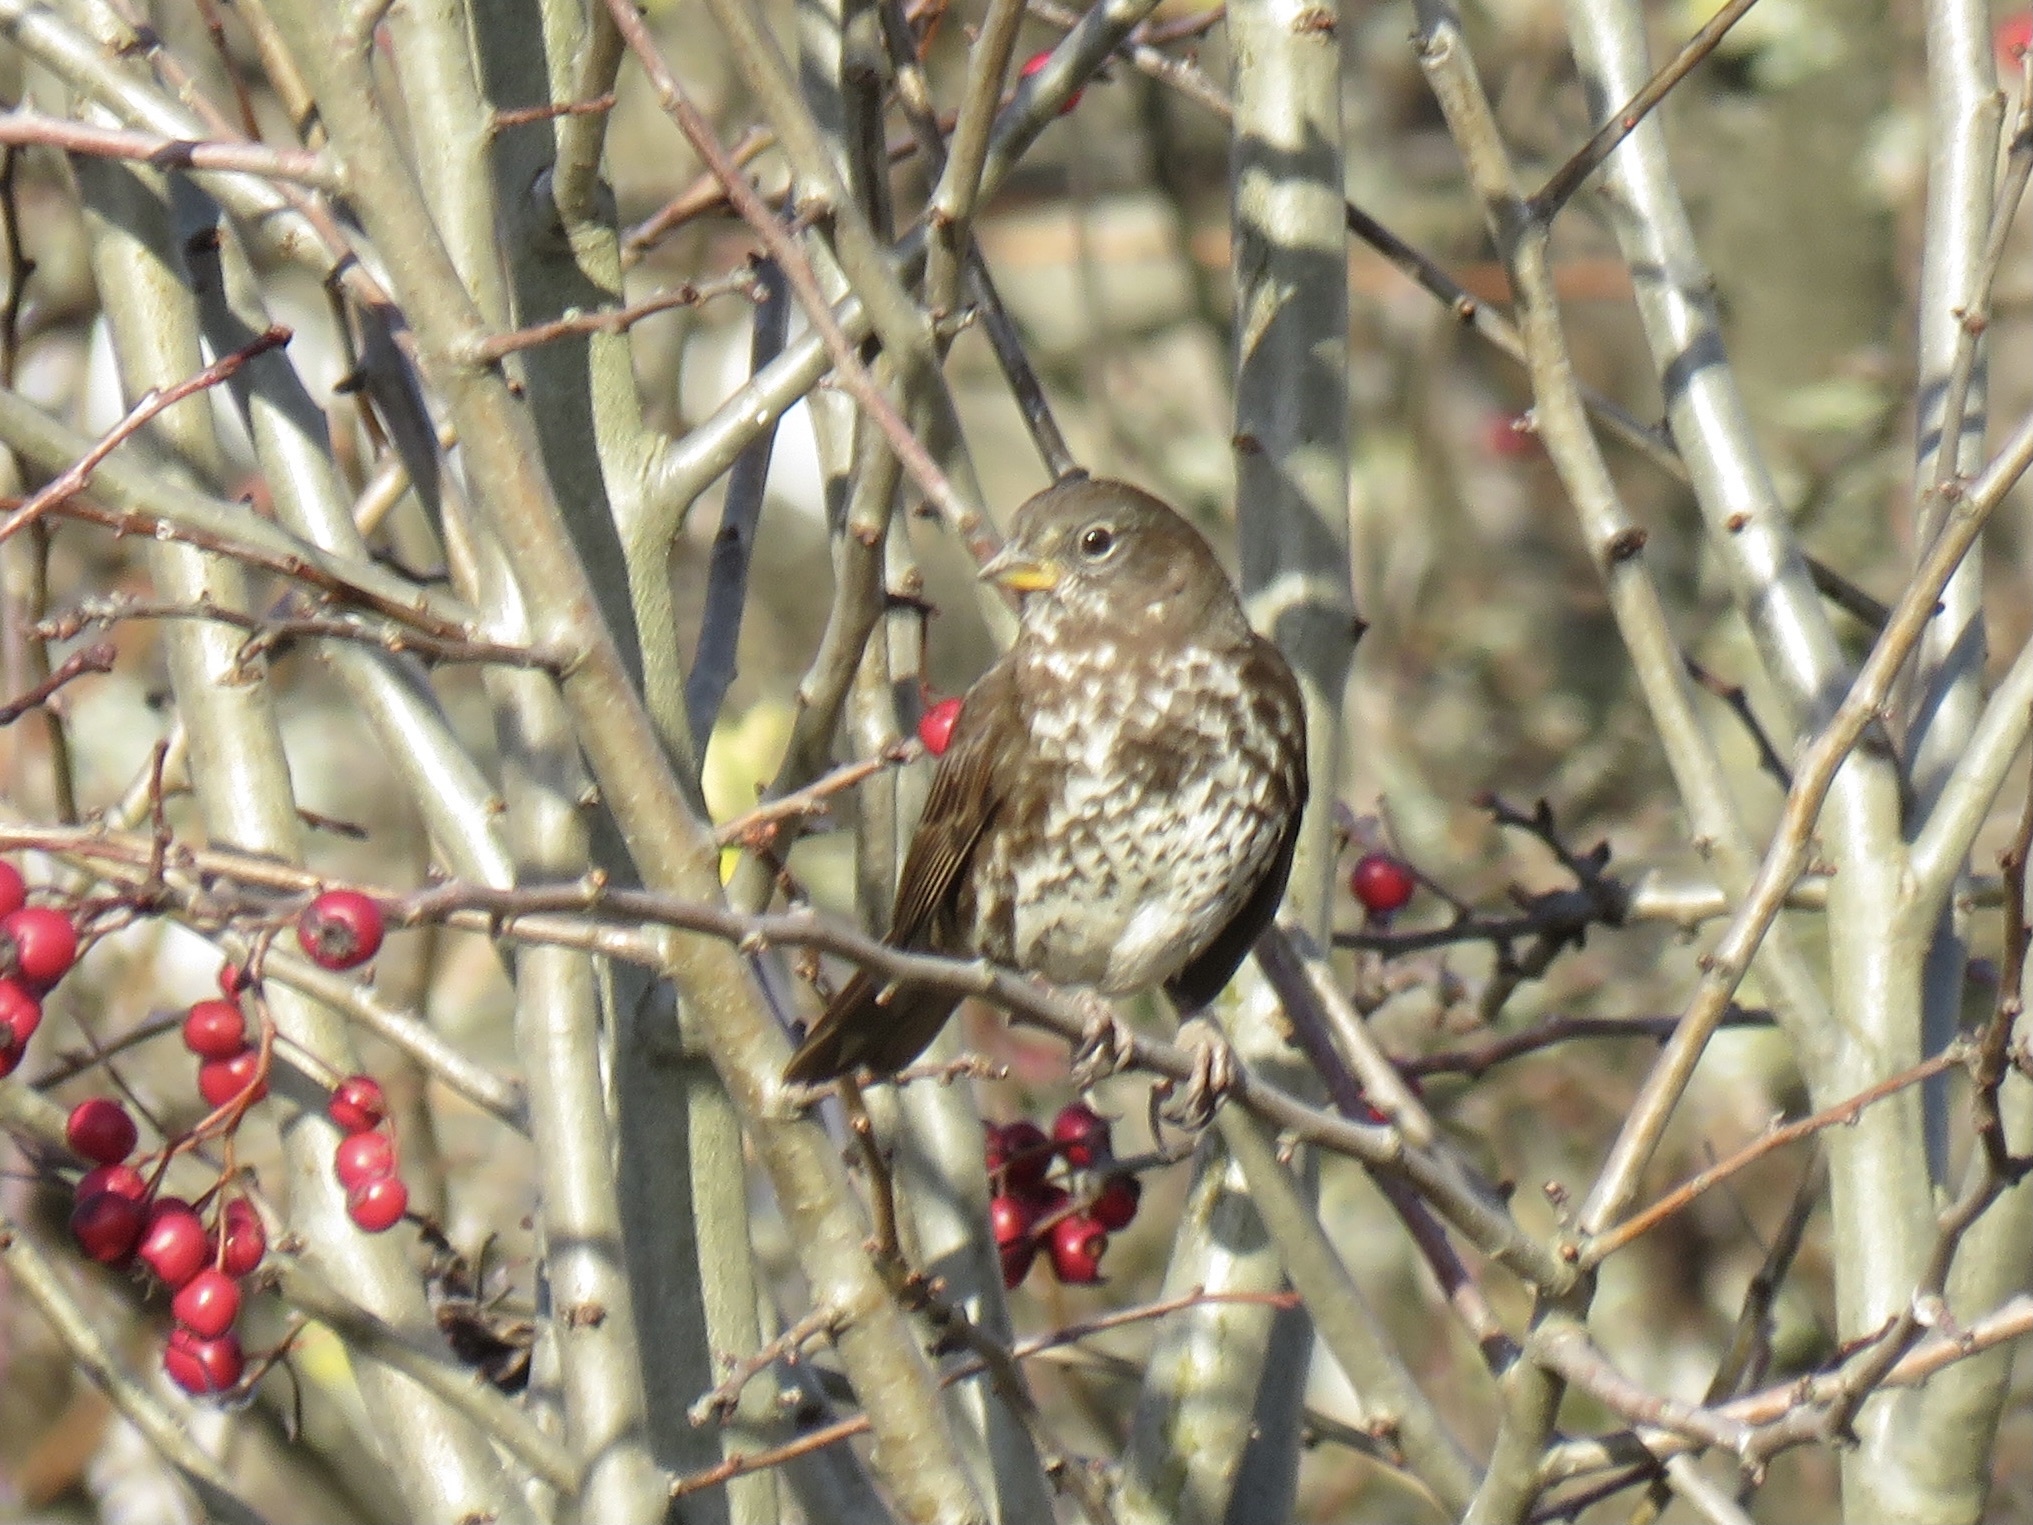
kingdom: Animalia
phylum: Chordata
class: Aves
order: Passeriformes
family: Passerellidae
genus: Passerella
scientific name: Passerella iliaca
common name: Fox sparrow
